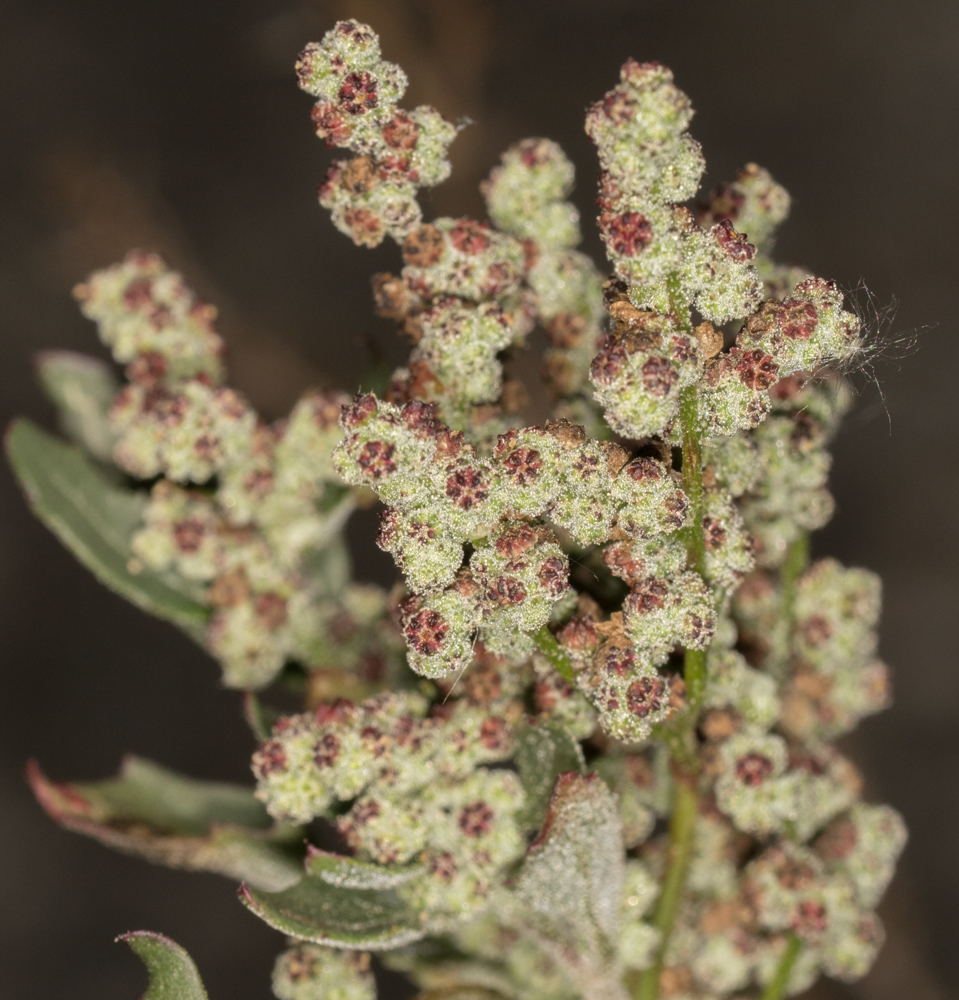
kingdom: Plantae
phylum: Tracheophyta
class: Magnoliopsida
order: Caryophyllales
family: Amaranthaceae
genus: Chenopodiastrum
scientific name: Chenopodiastrum murale
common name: Sowbane
